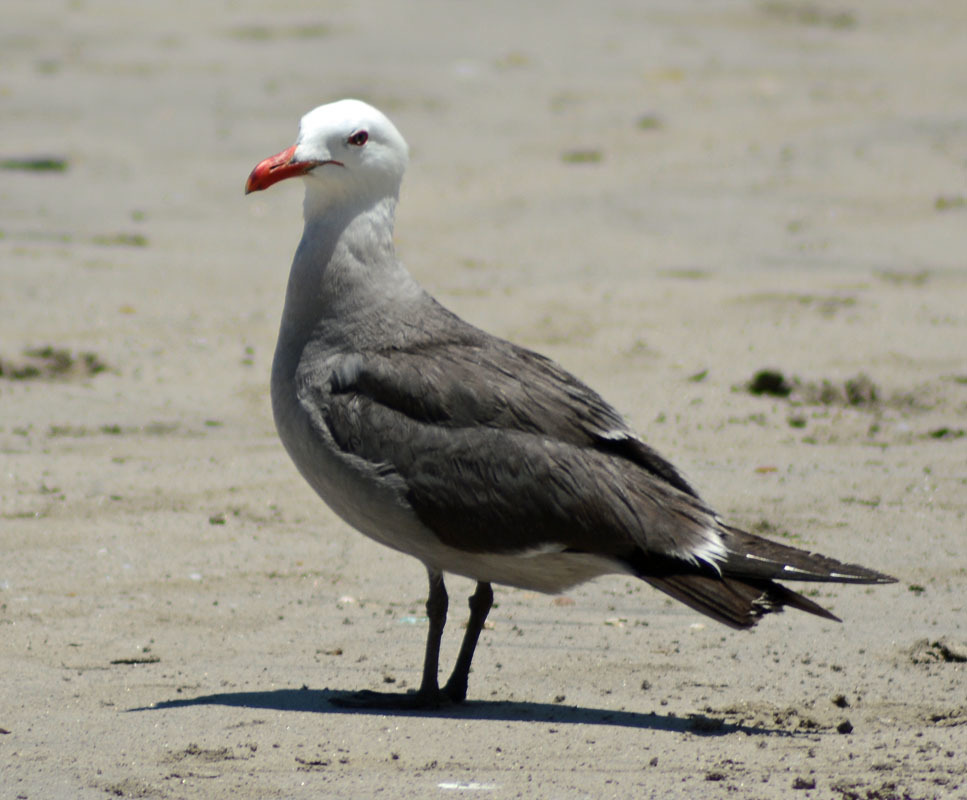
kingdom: Animalia
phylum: Chordata
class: Aves
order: Charadriiformes
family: Laridae
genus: Larus
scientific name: Larus heermanni
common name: Heermann's gull
